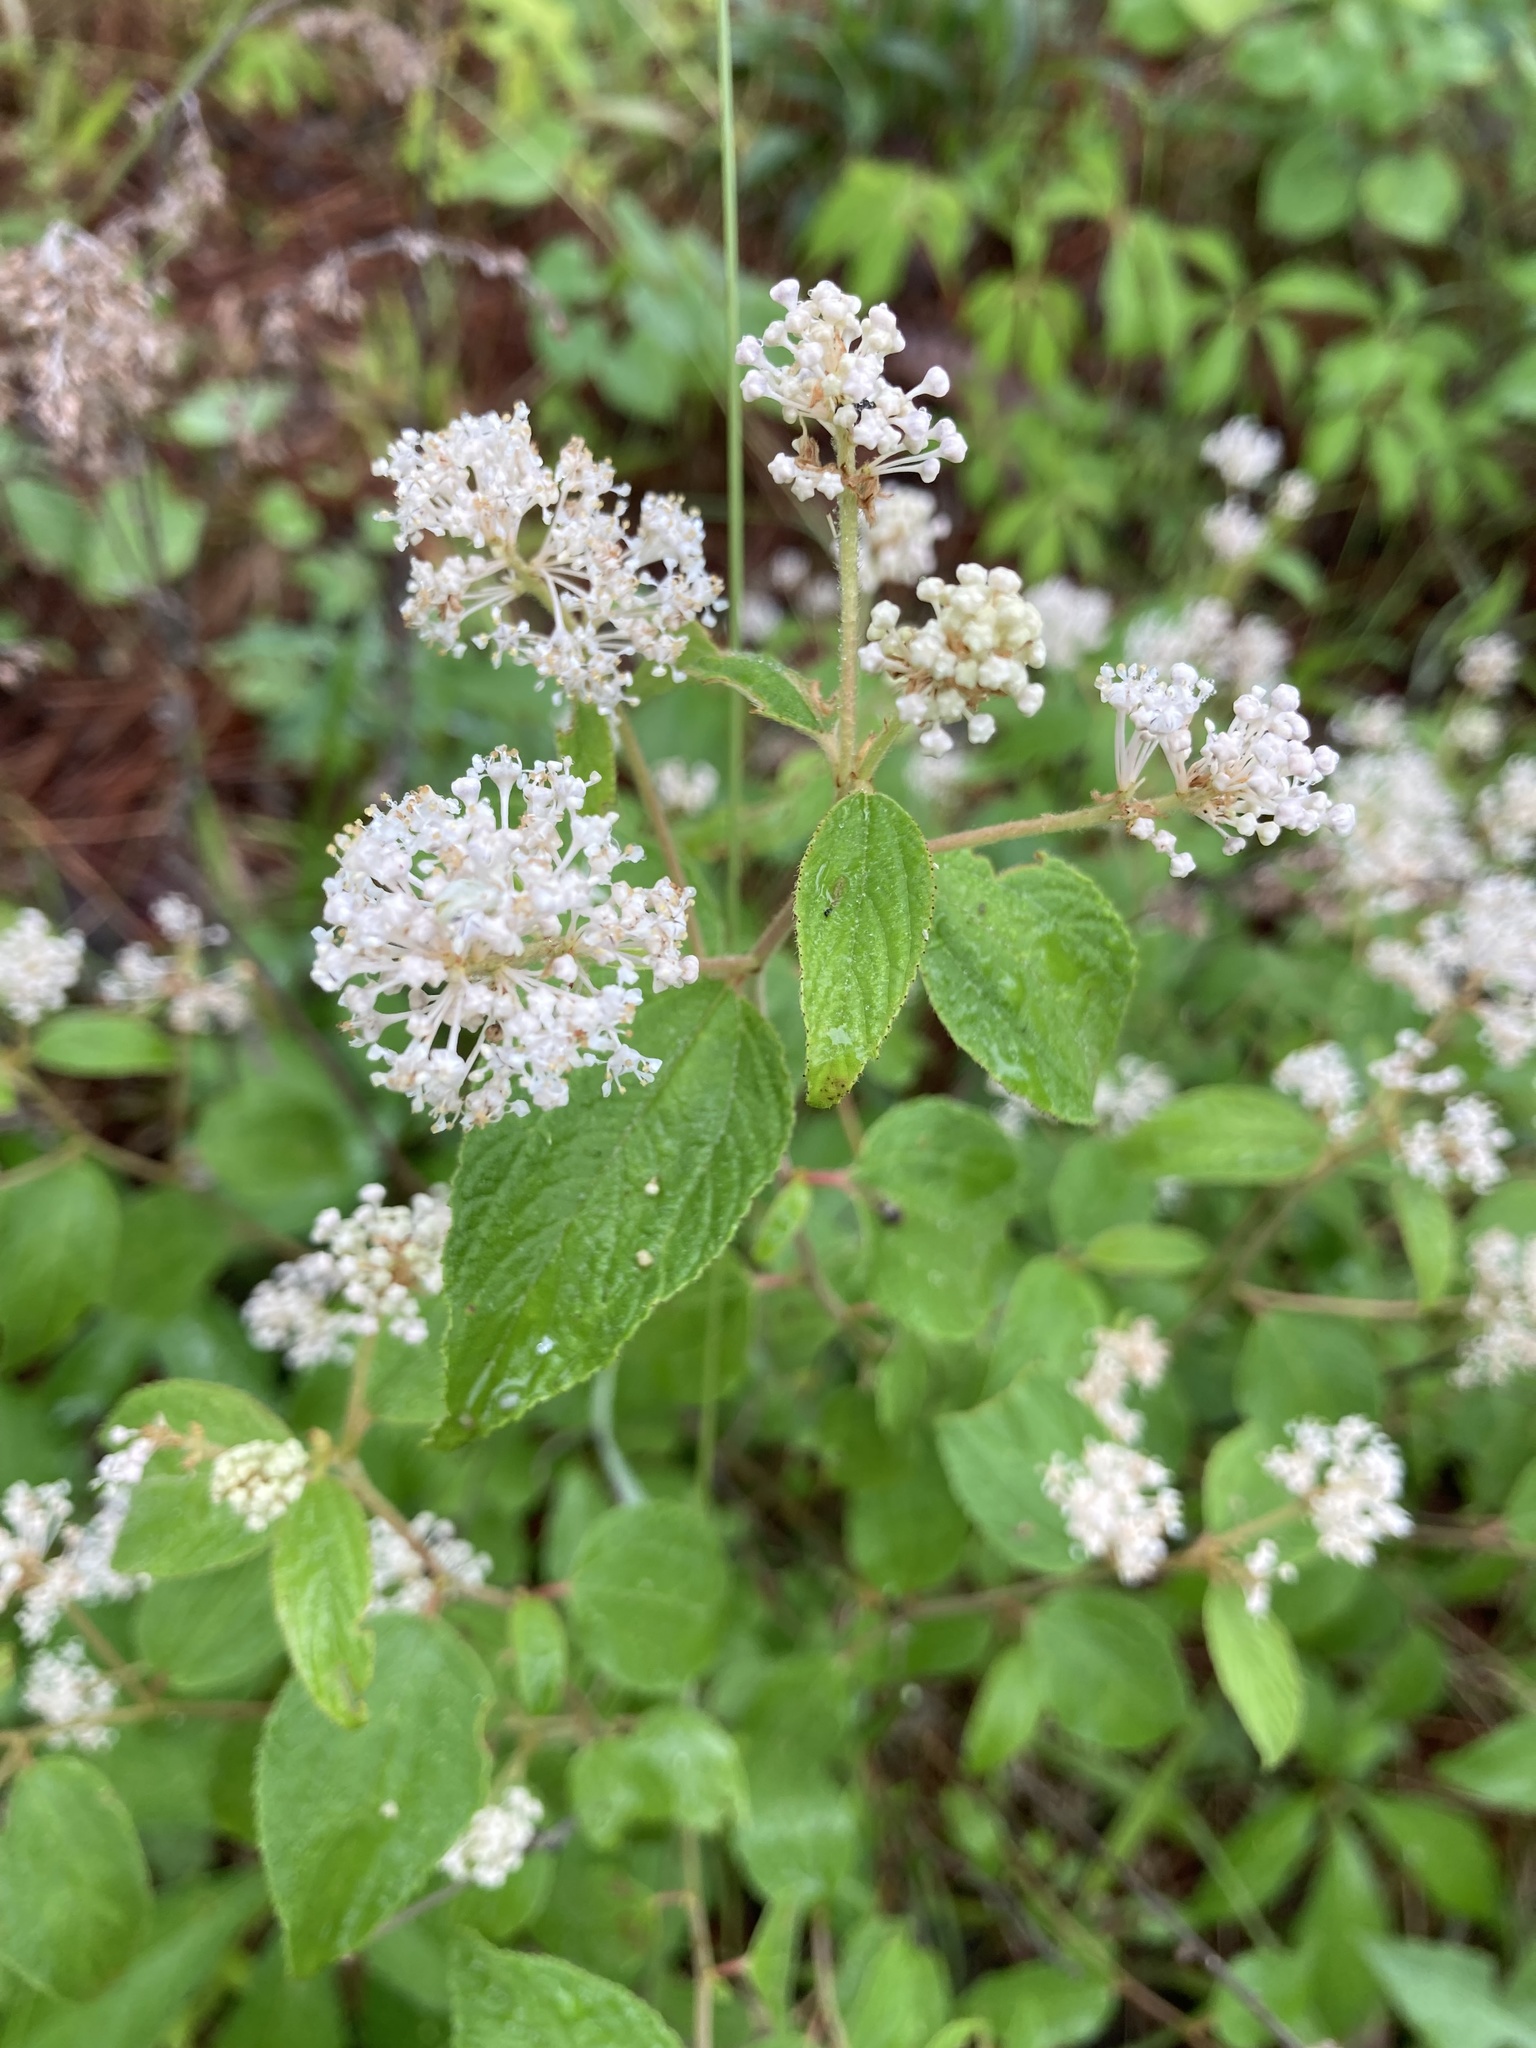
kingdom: Plantae
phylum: Tracheophyta
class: Magnoliopsida
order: Rosales
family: Rhamnaceae
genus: Ceanothus
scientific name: Ceanothus americanus
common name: Redroot
